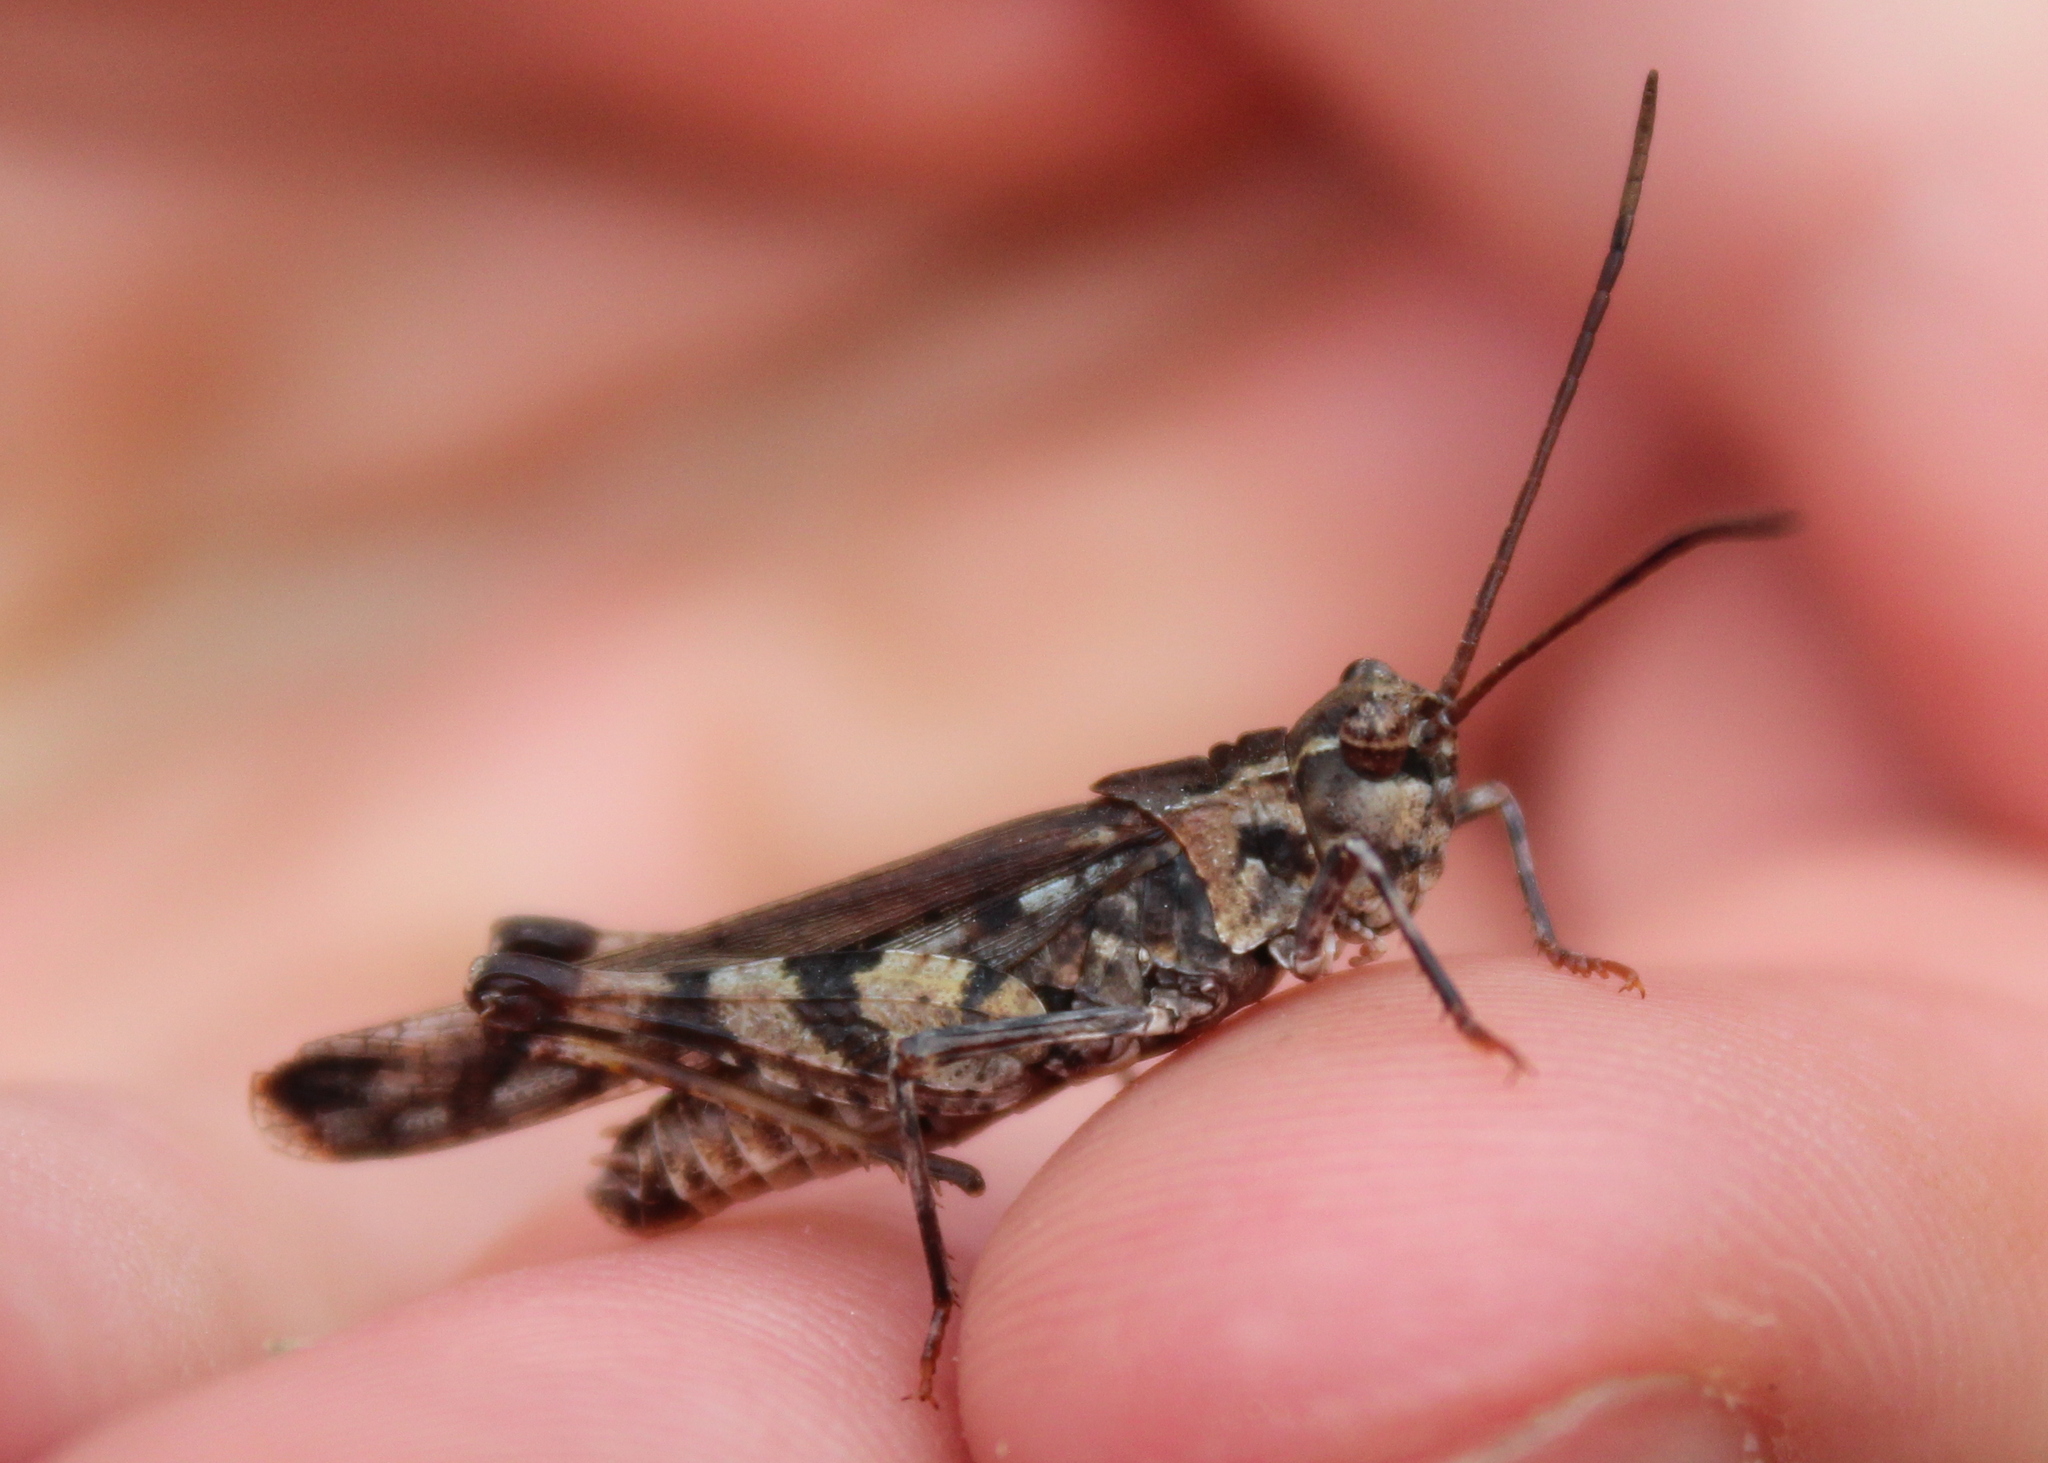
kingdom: Animalia
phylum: Arthropoda
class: Insecta
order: Orthoptera
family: Acrididae
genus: Psinidia
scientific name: Psinidia fenestralis
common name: Long-horned locust
